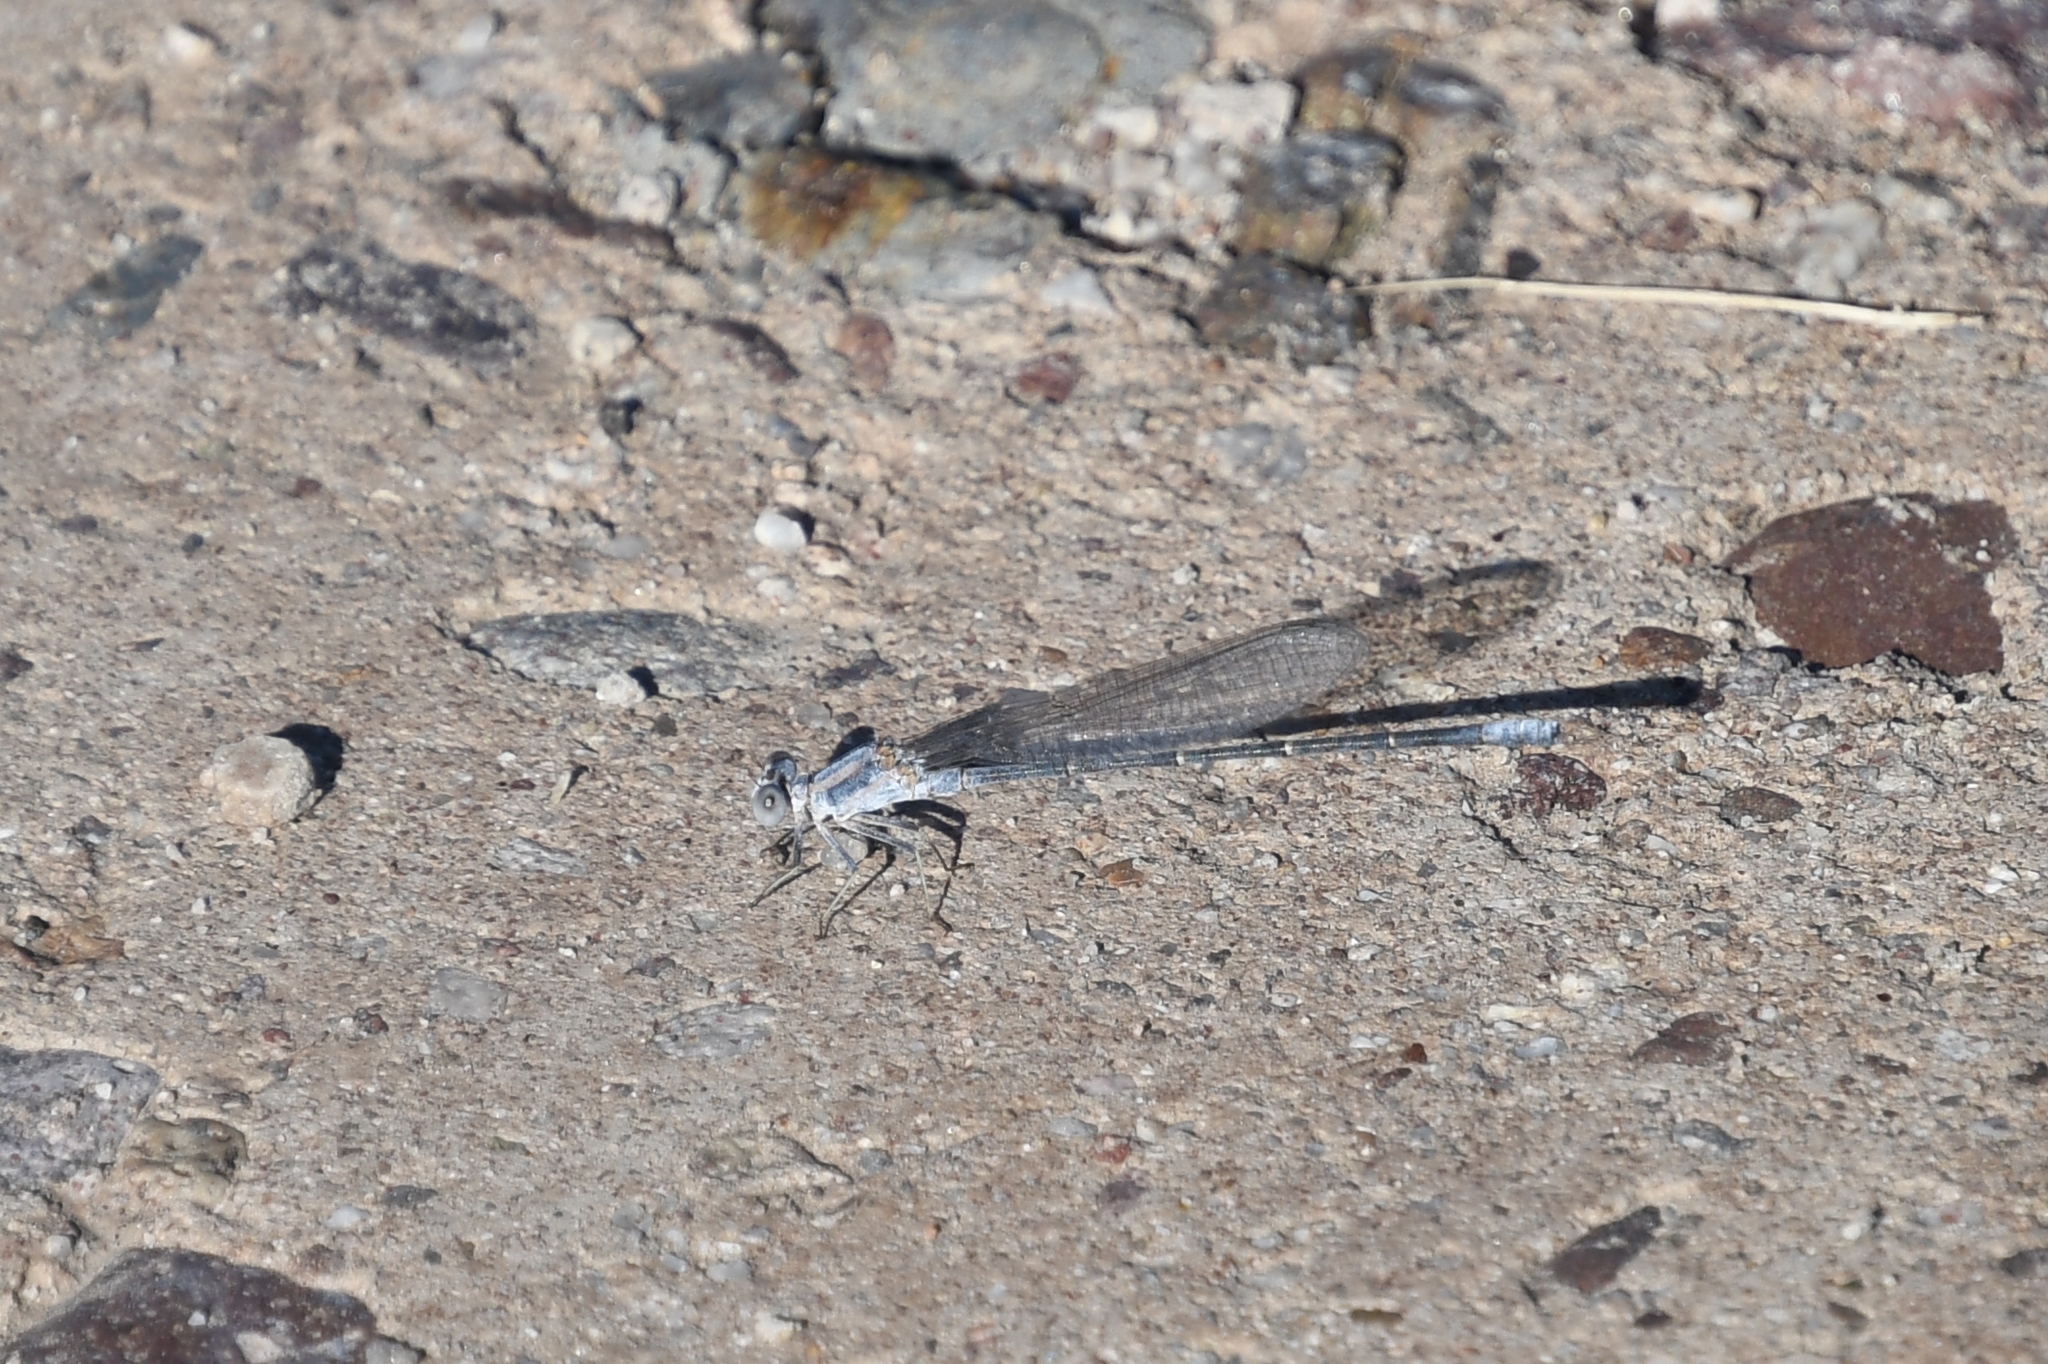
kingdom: Animalia
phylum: Arthropoda
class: Insecta
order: Odonata
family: Coenagrionidae
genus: Argia
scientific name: Argia moesta
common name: Powdered dancer
